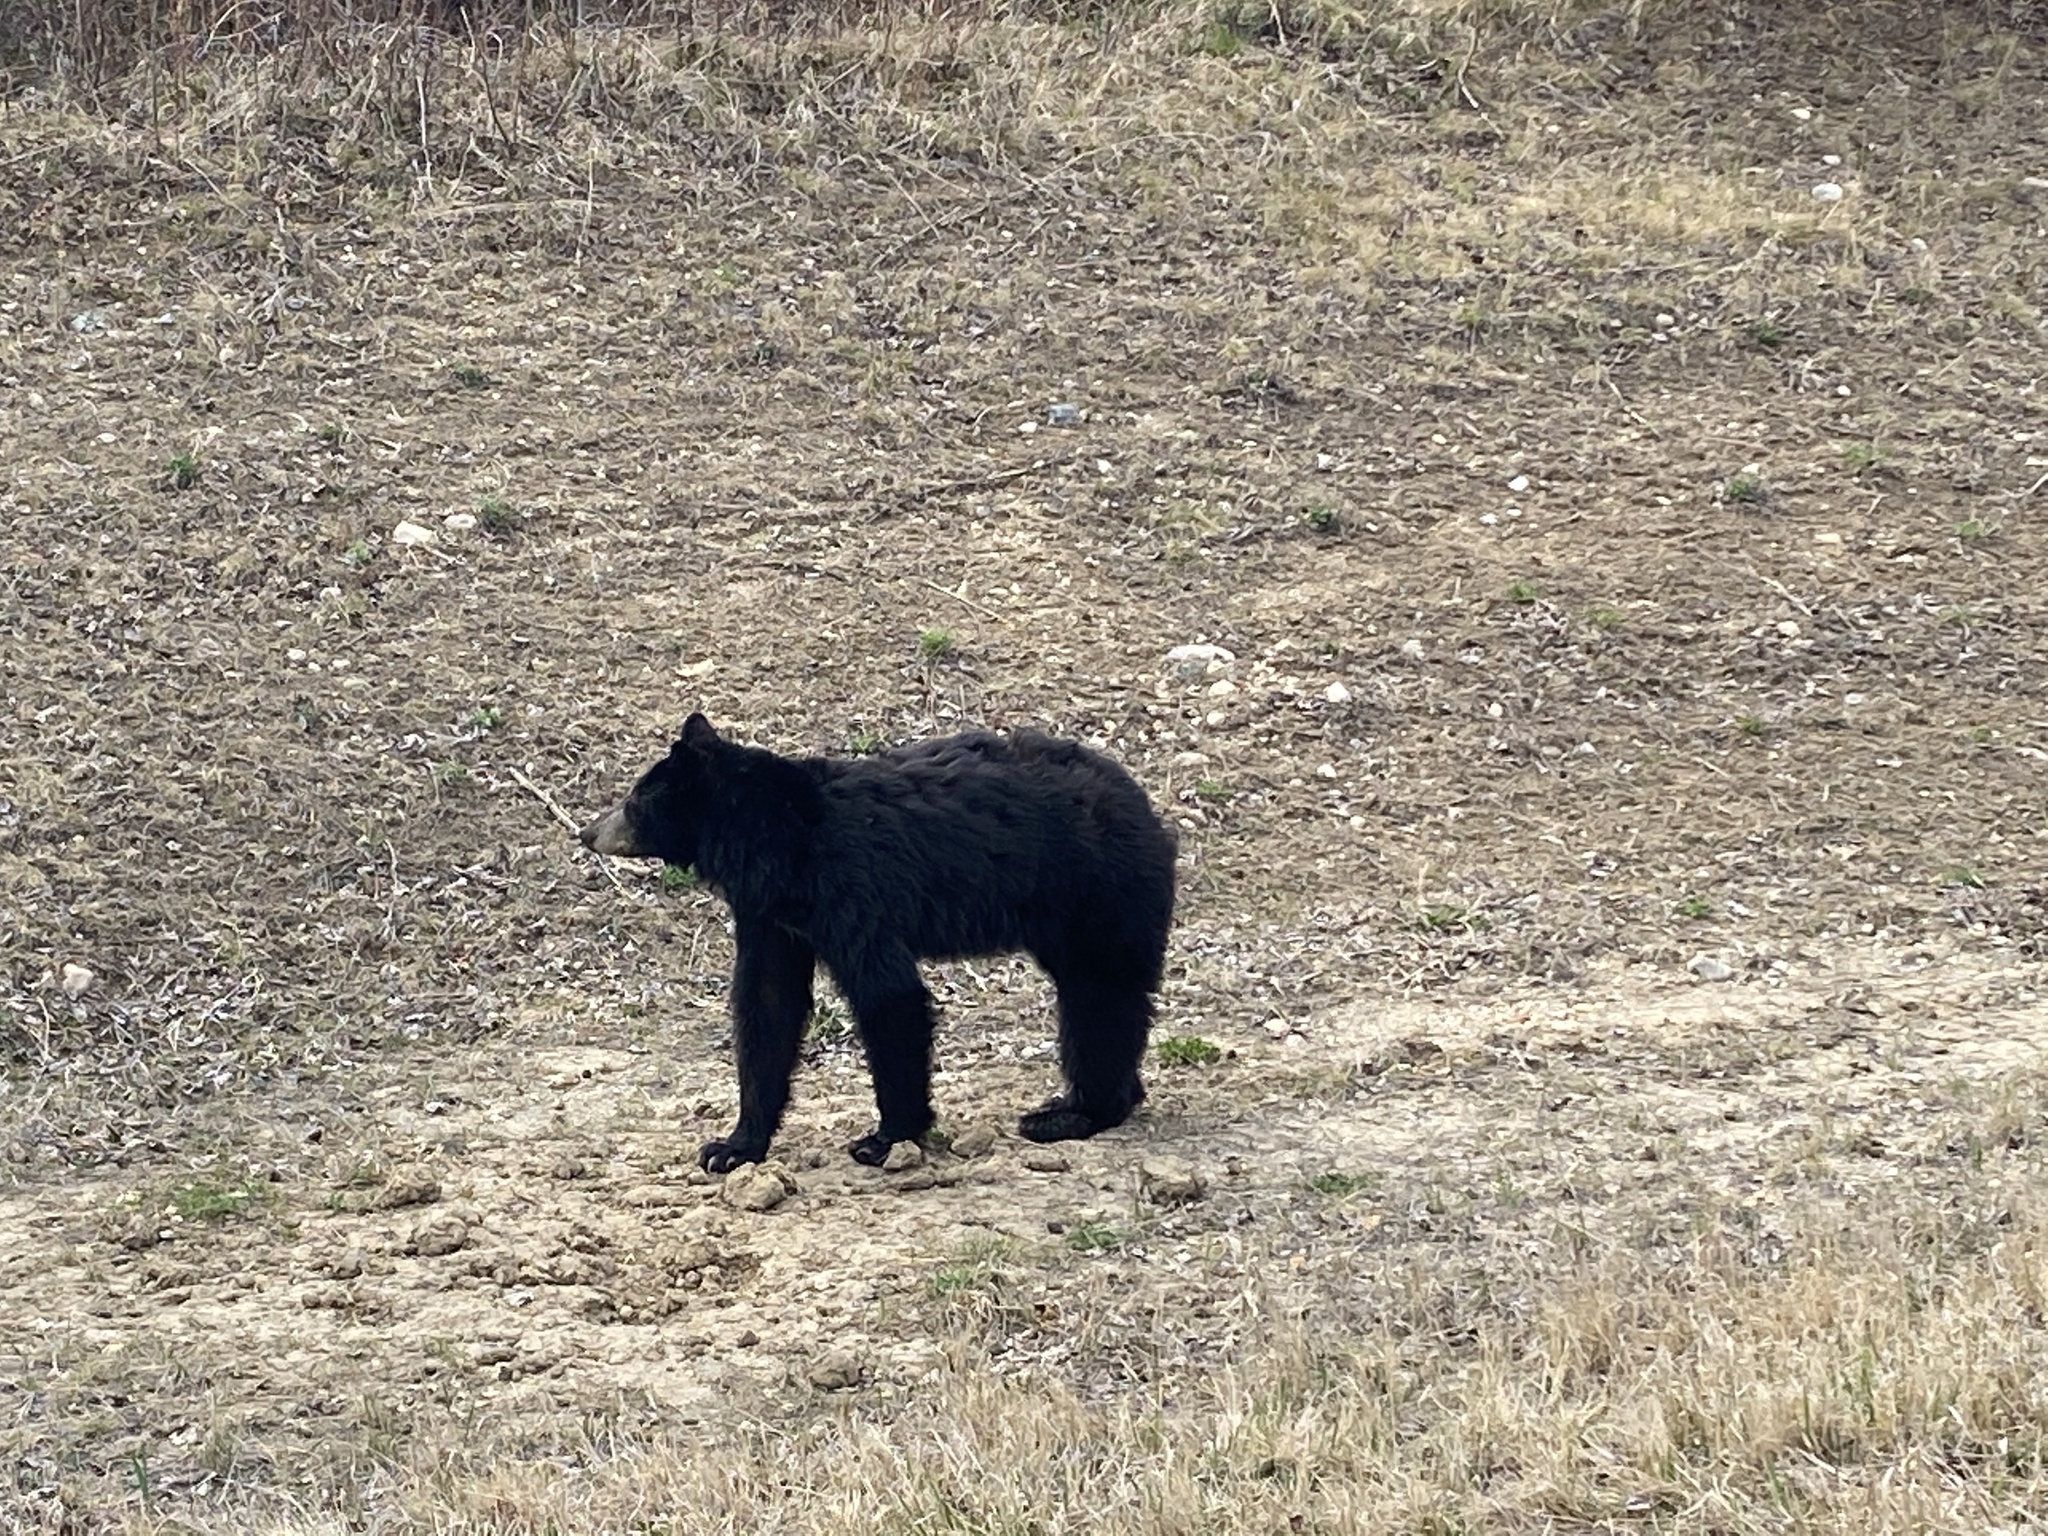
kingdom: Animalia
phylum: Chordata
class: Mammalia
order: Carnivora
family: Ursidae
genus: Ursus
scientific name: Ursus americanus
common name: American black bear
